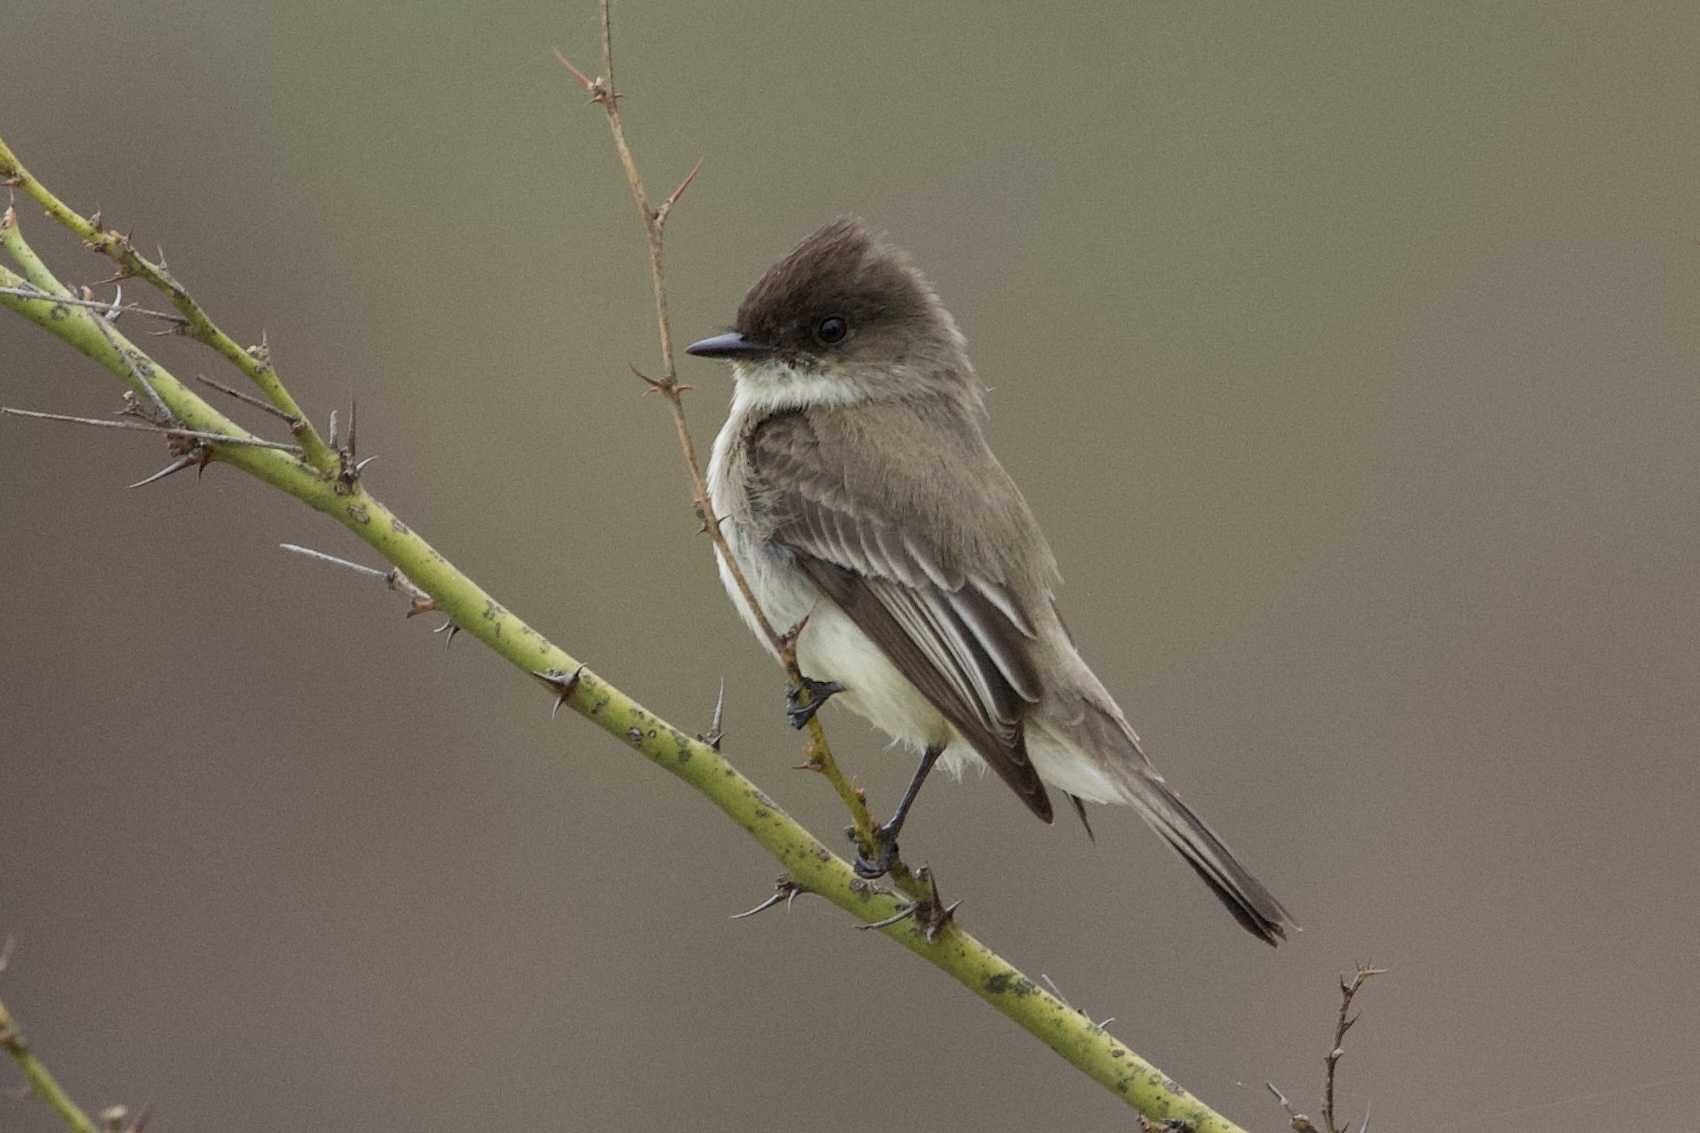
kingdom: Animalia
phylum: Chordata
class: Aves
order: Passeriformes
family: Tyrannidae
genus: Sayornis
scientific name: Sayornis phoebe
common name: Eastern phoebe
